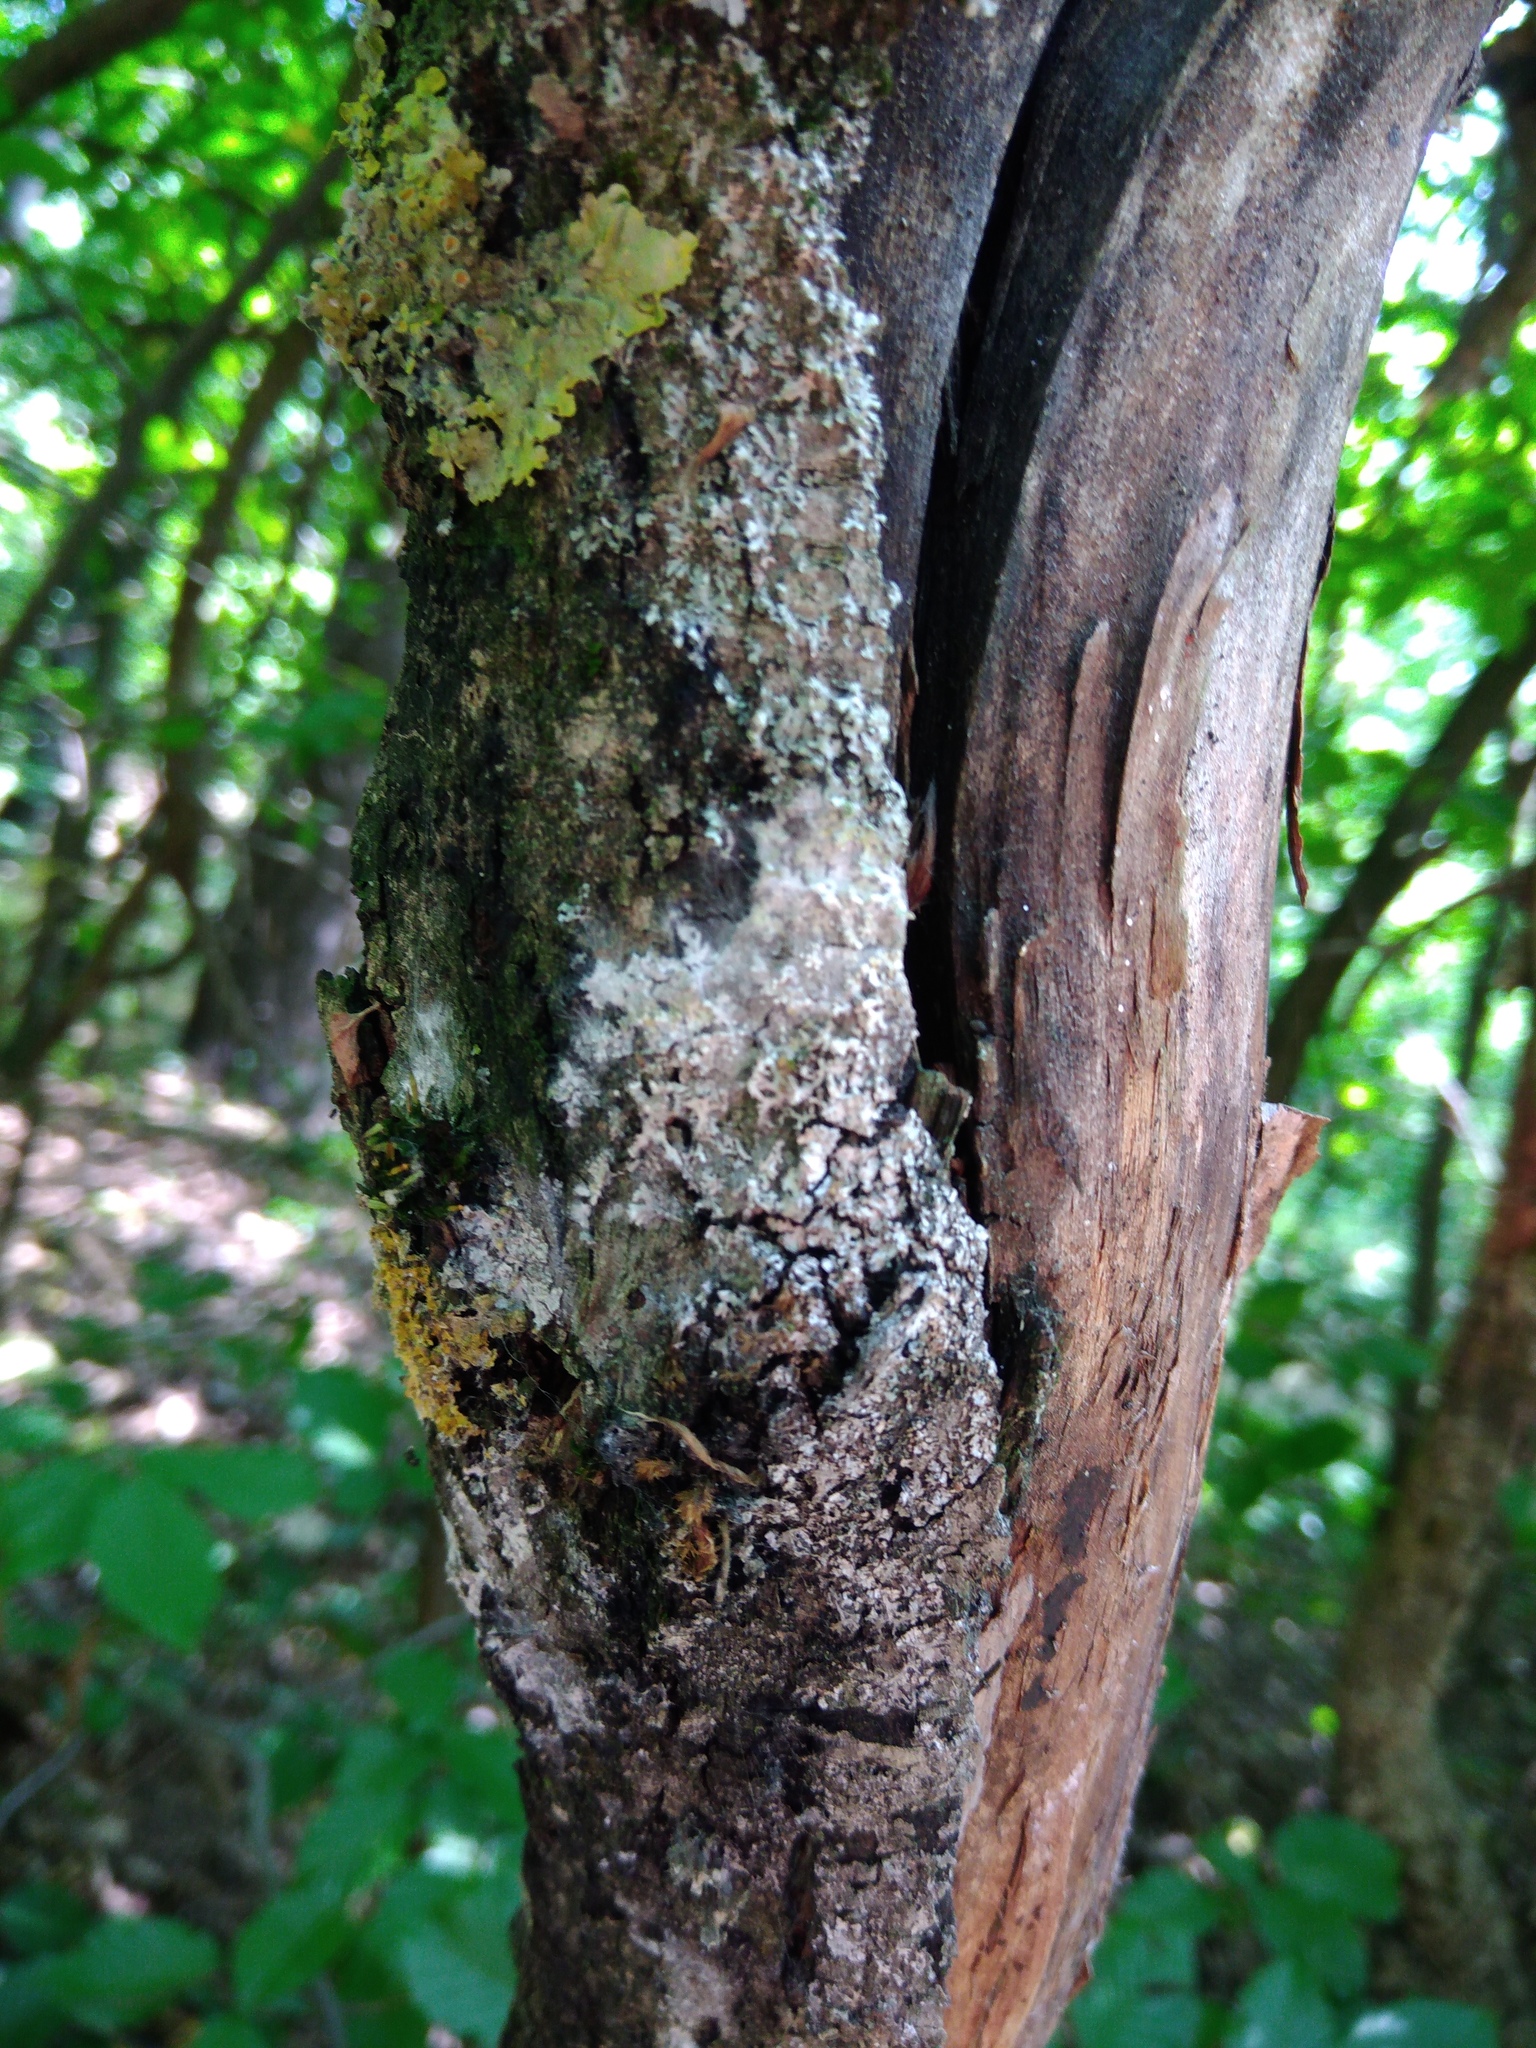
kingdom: Fungi
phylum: Basidiomycota
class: Agaricomycetes
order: Atheliales
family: Atheliaceae
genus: Athelia
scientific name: Athelia arachnoidea
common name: Candelabra duster
